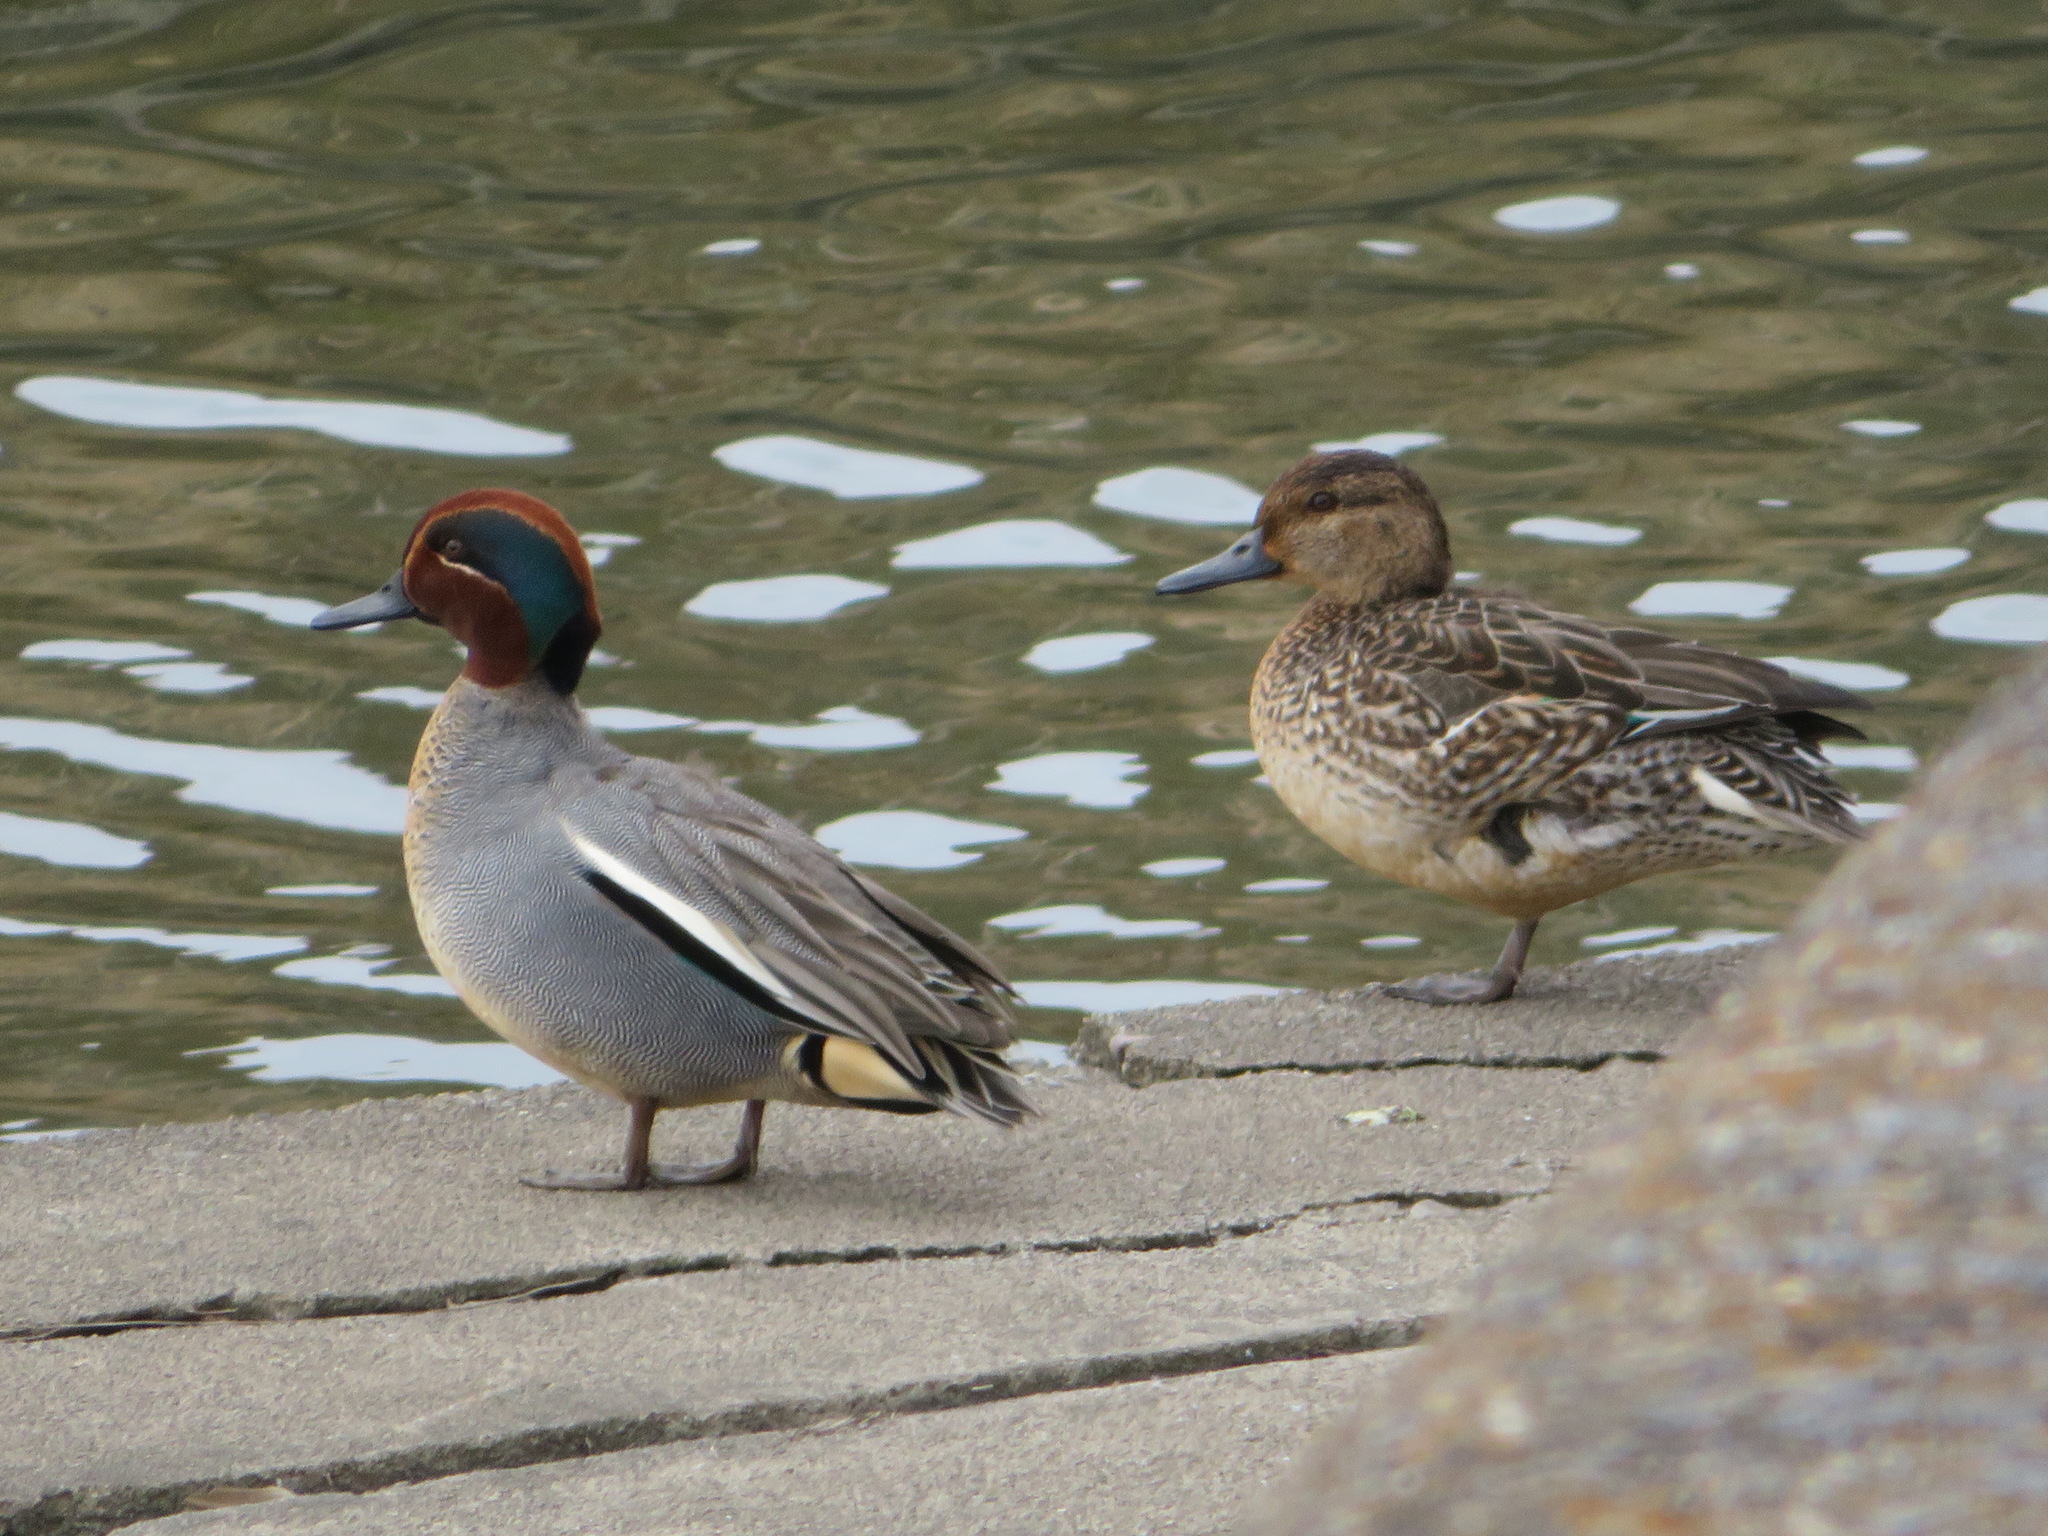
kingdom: Animalia
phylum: Chordata
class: Aves
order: Anseriformes
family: Anatidae
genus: Anas
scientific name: Anas crecca
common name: Eurasian teal
